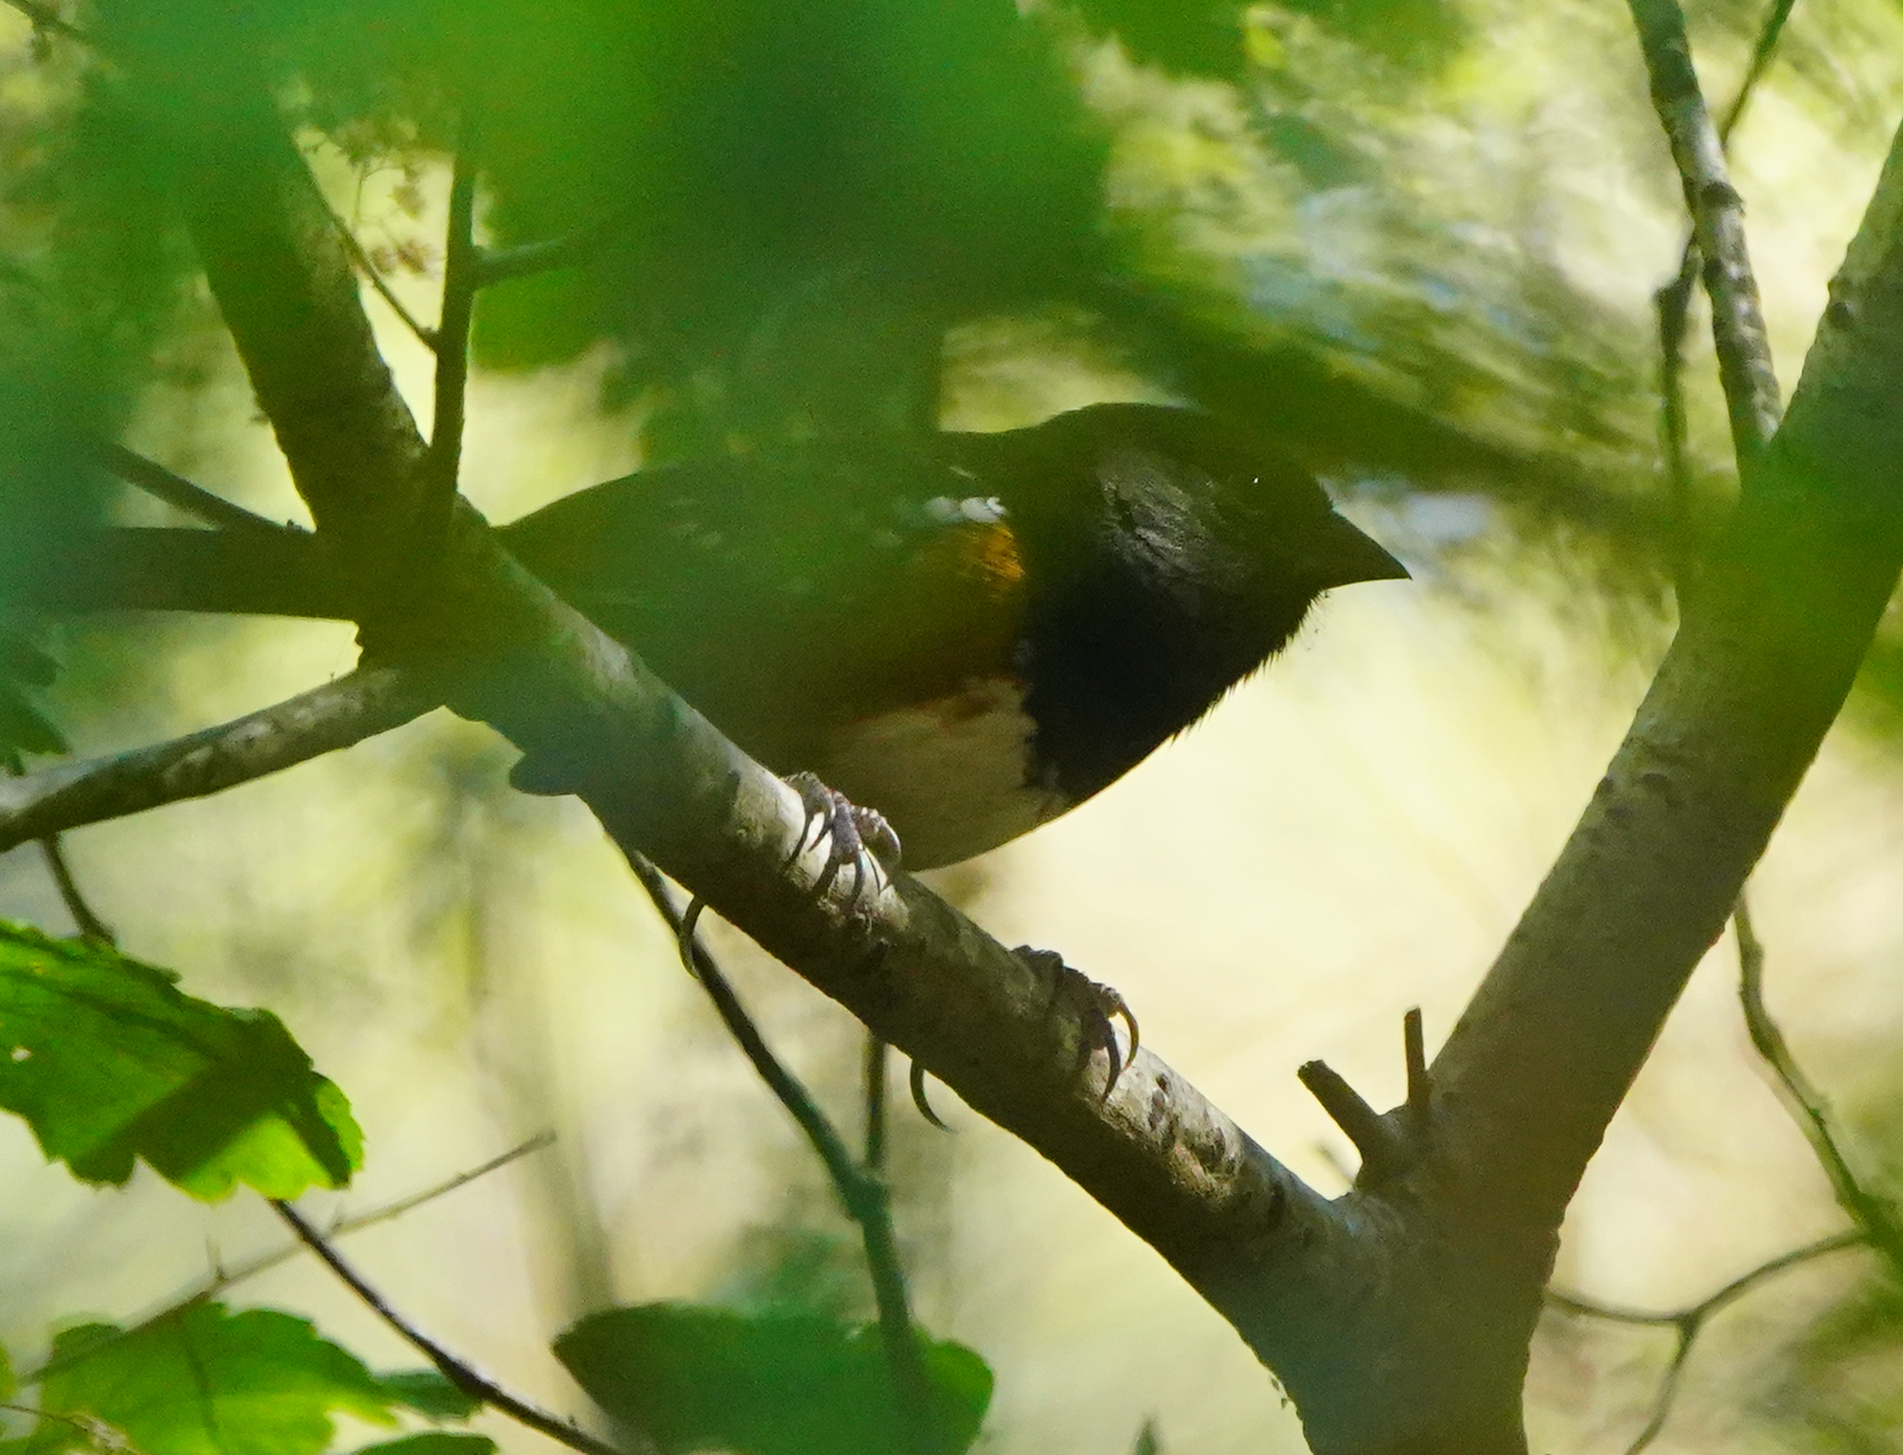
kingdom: Animalia
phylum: Chordata
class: Aves
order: Passeriformes
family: Passerellidae
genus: Pipilo
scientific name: Pipilo maculatus
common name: Spotted towhee
